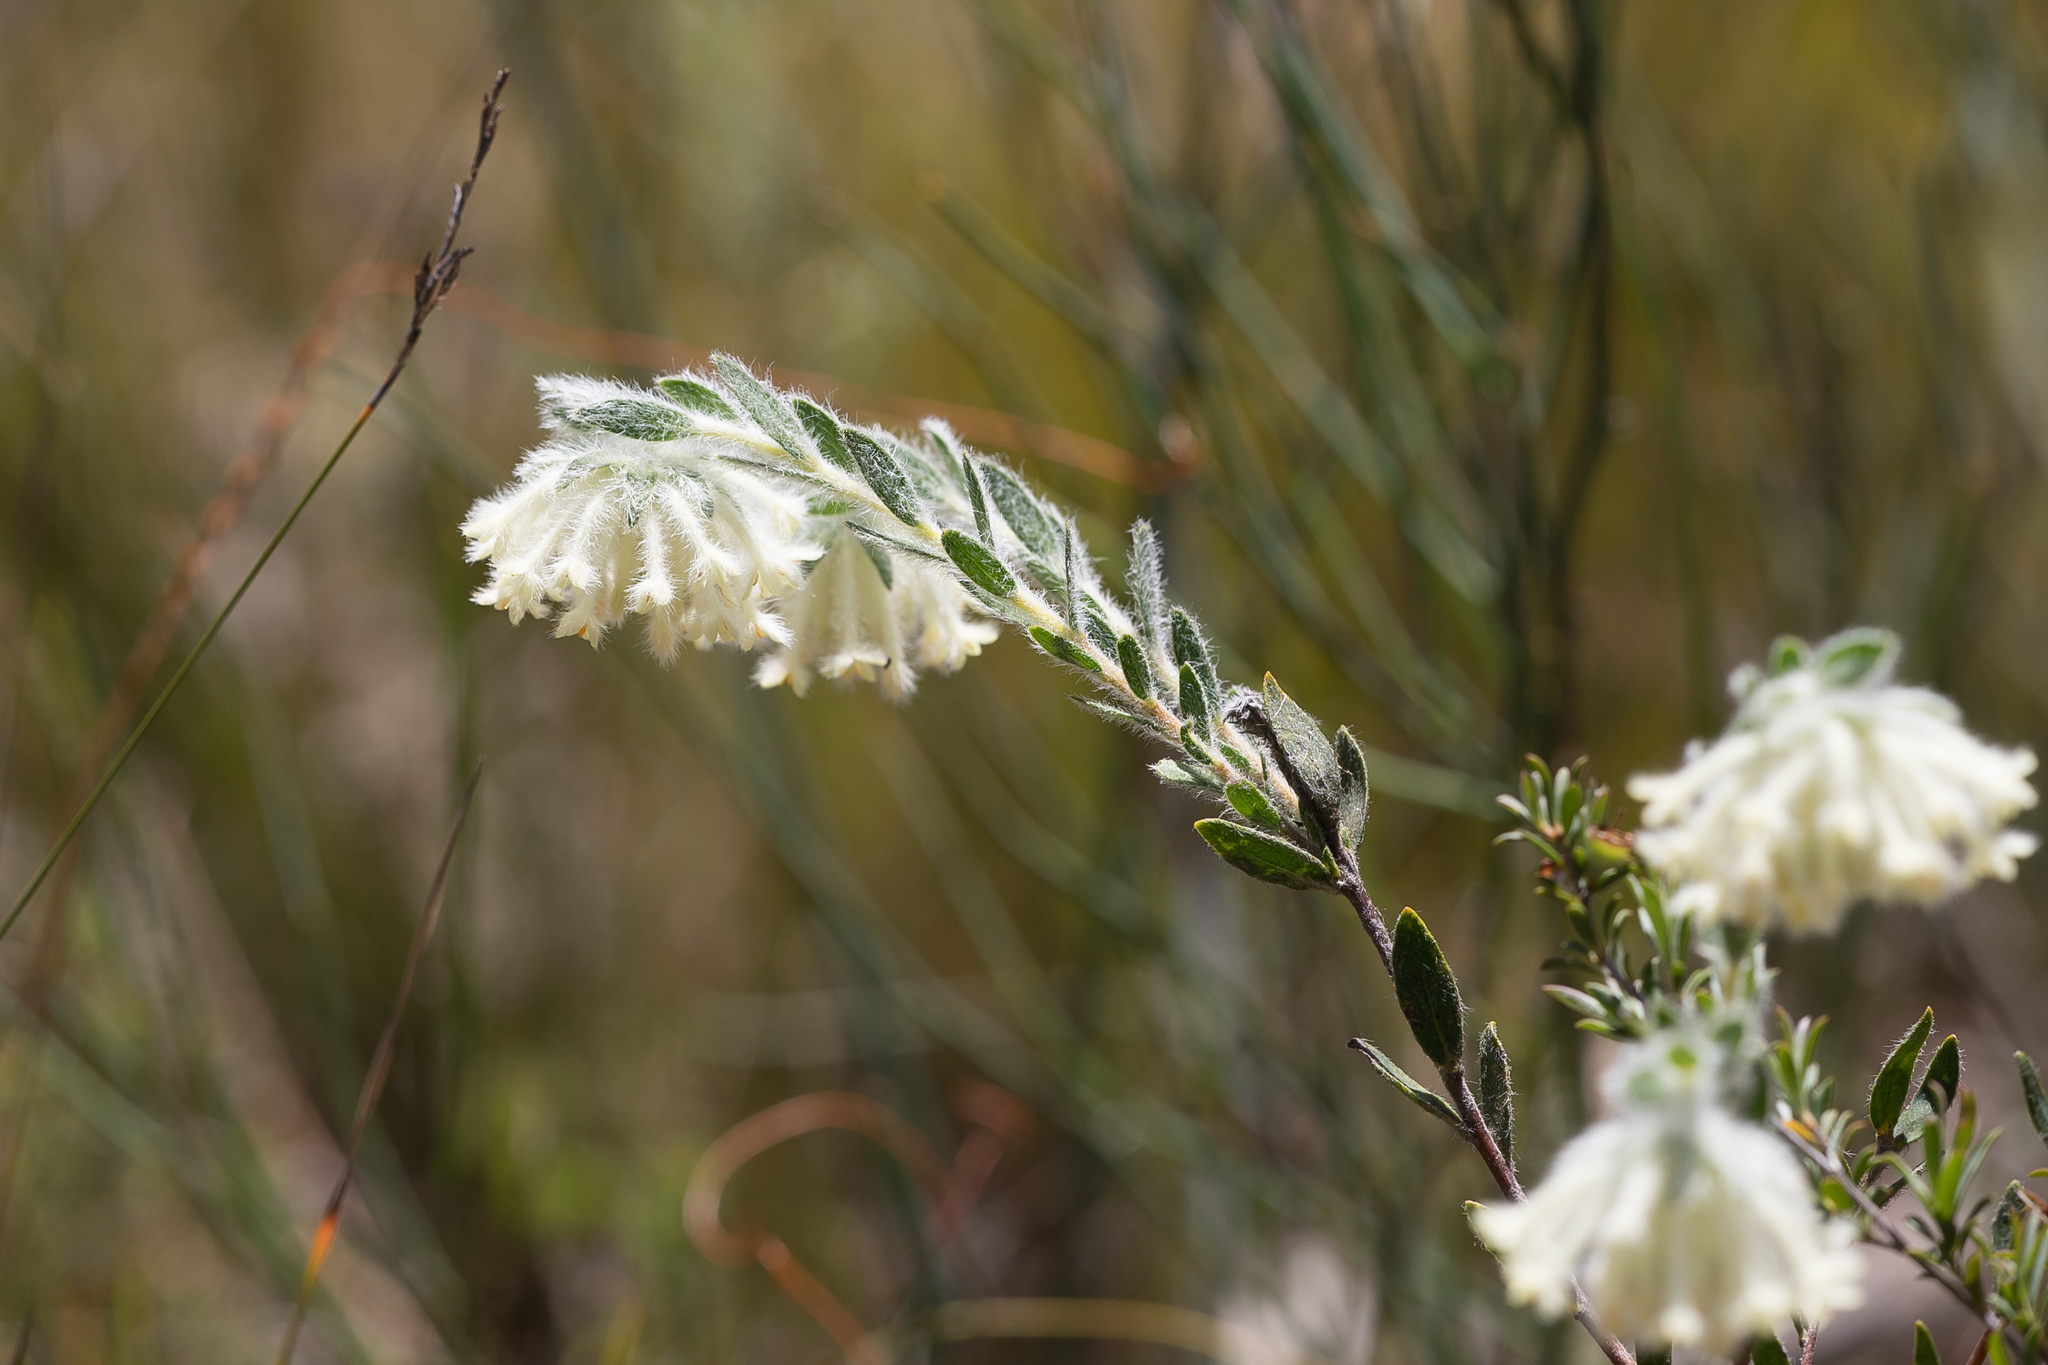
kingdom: Plantae
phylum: Tracheophyta
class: Magnoliopsida
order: Malvales
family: Thymelaeaceae
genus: Pimelea
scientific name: Pimelea octophylla
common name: Woolly riceflower
